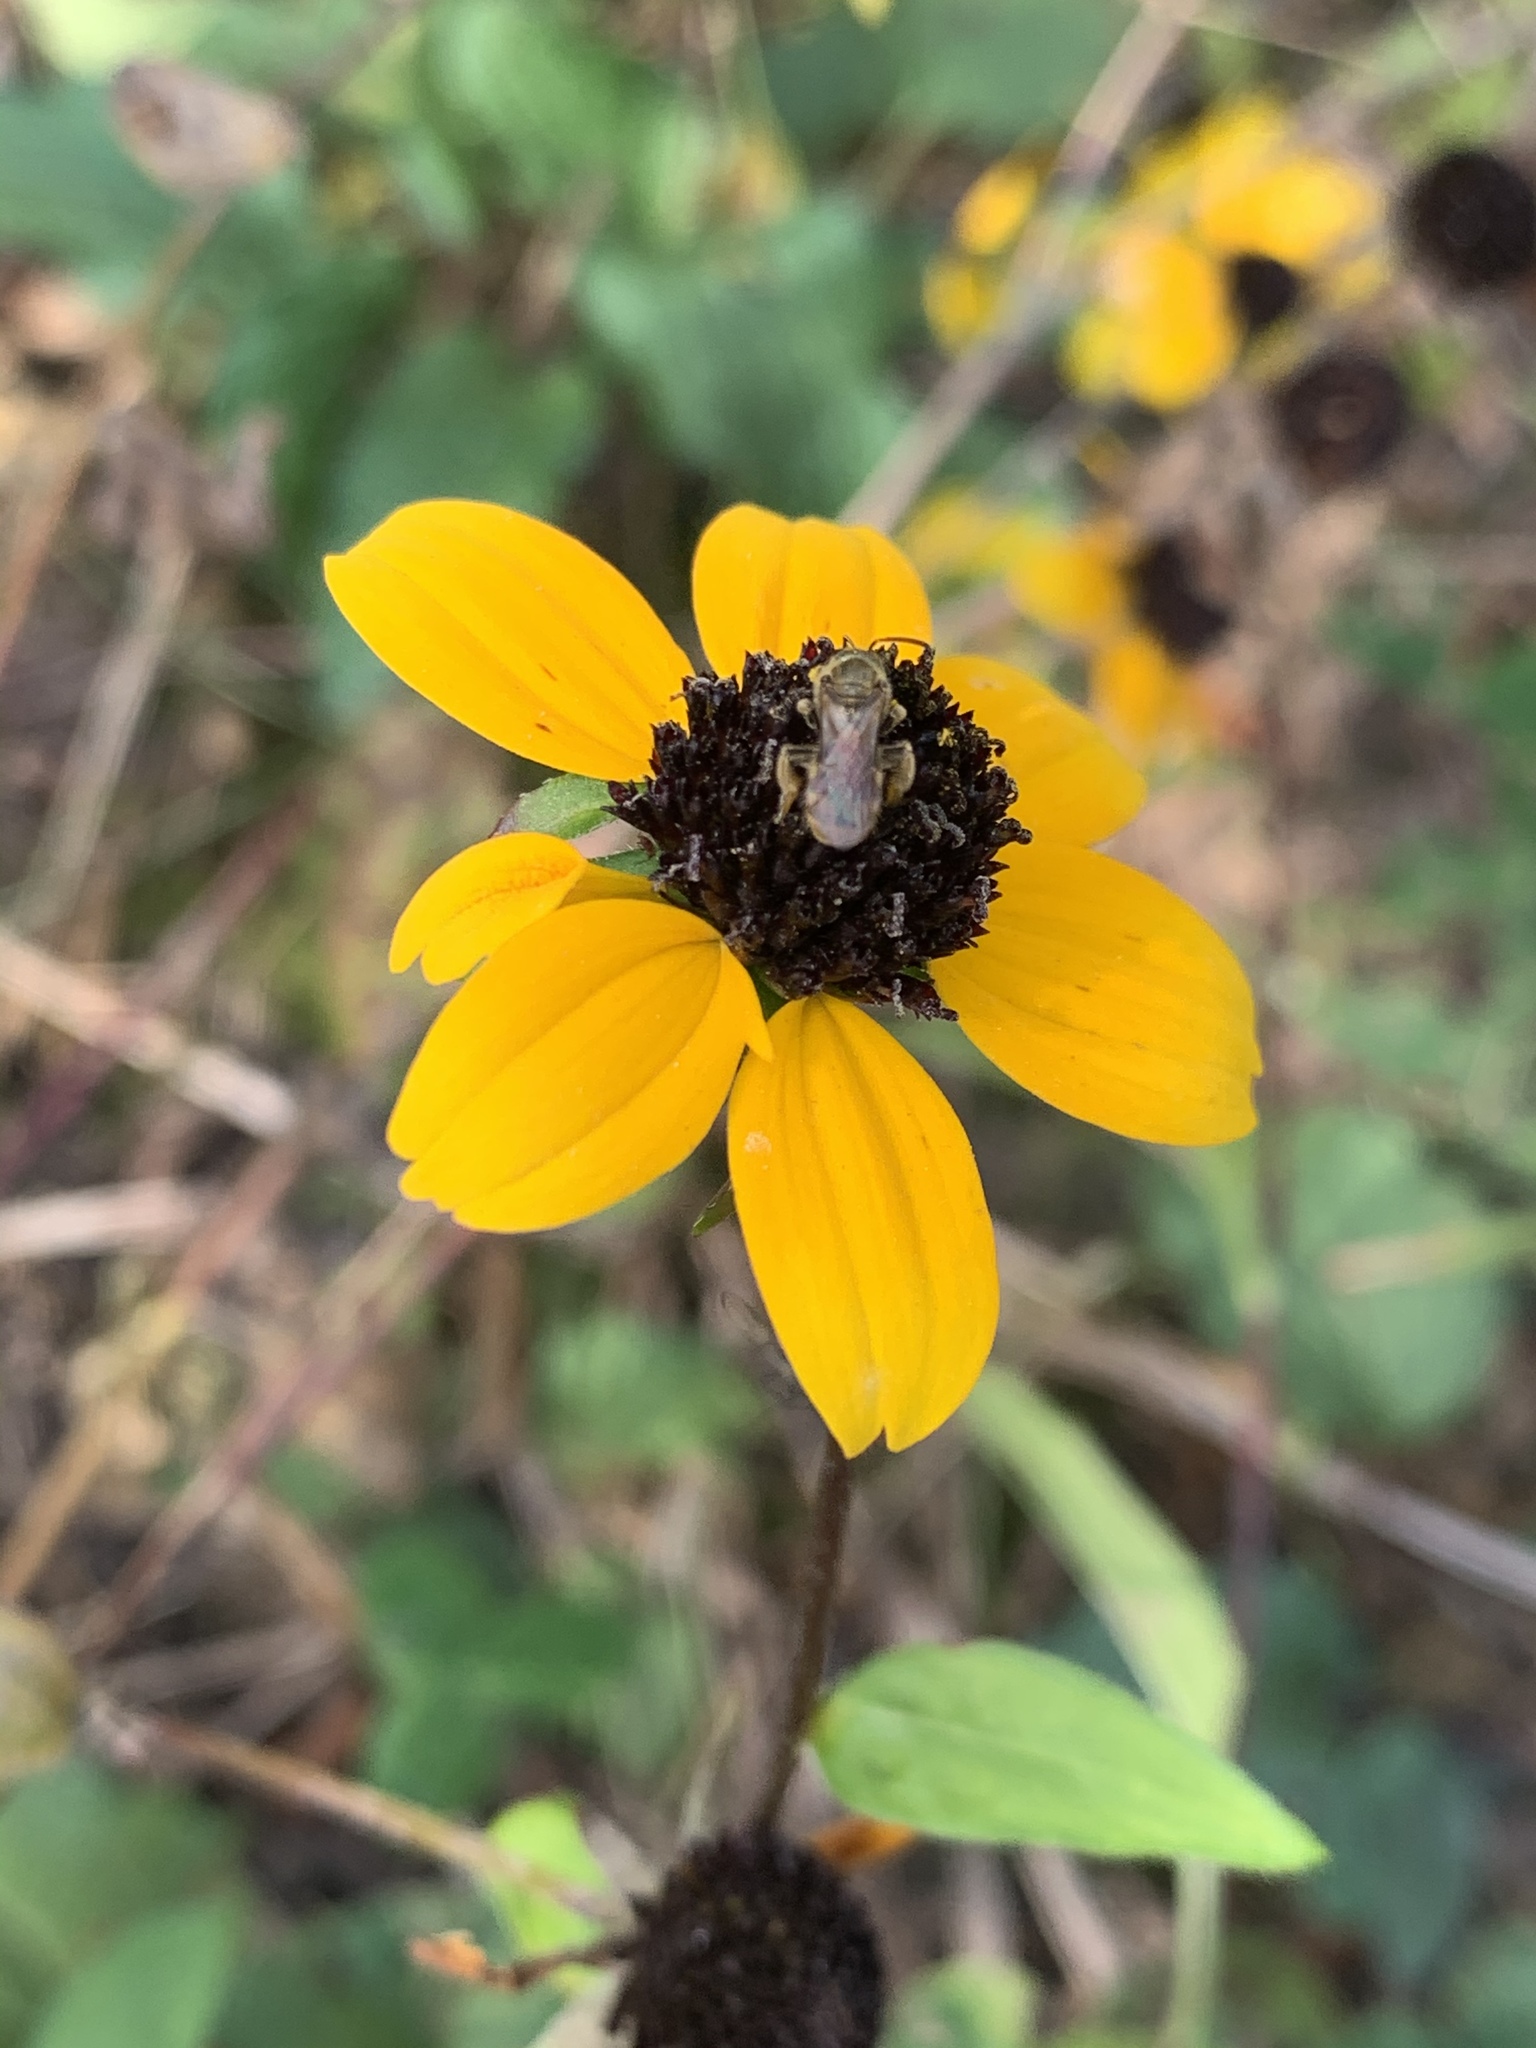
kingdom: Plantae
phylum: Tracheophyta
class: Magnoliopsida
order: Asterales
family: Asteraceae
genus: Rudbeckia
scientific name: Rudbeckia triloba
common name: Thin-leaved coneflower
